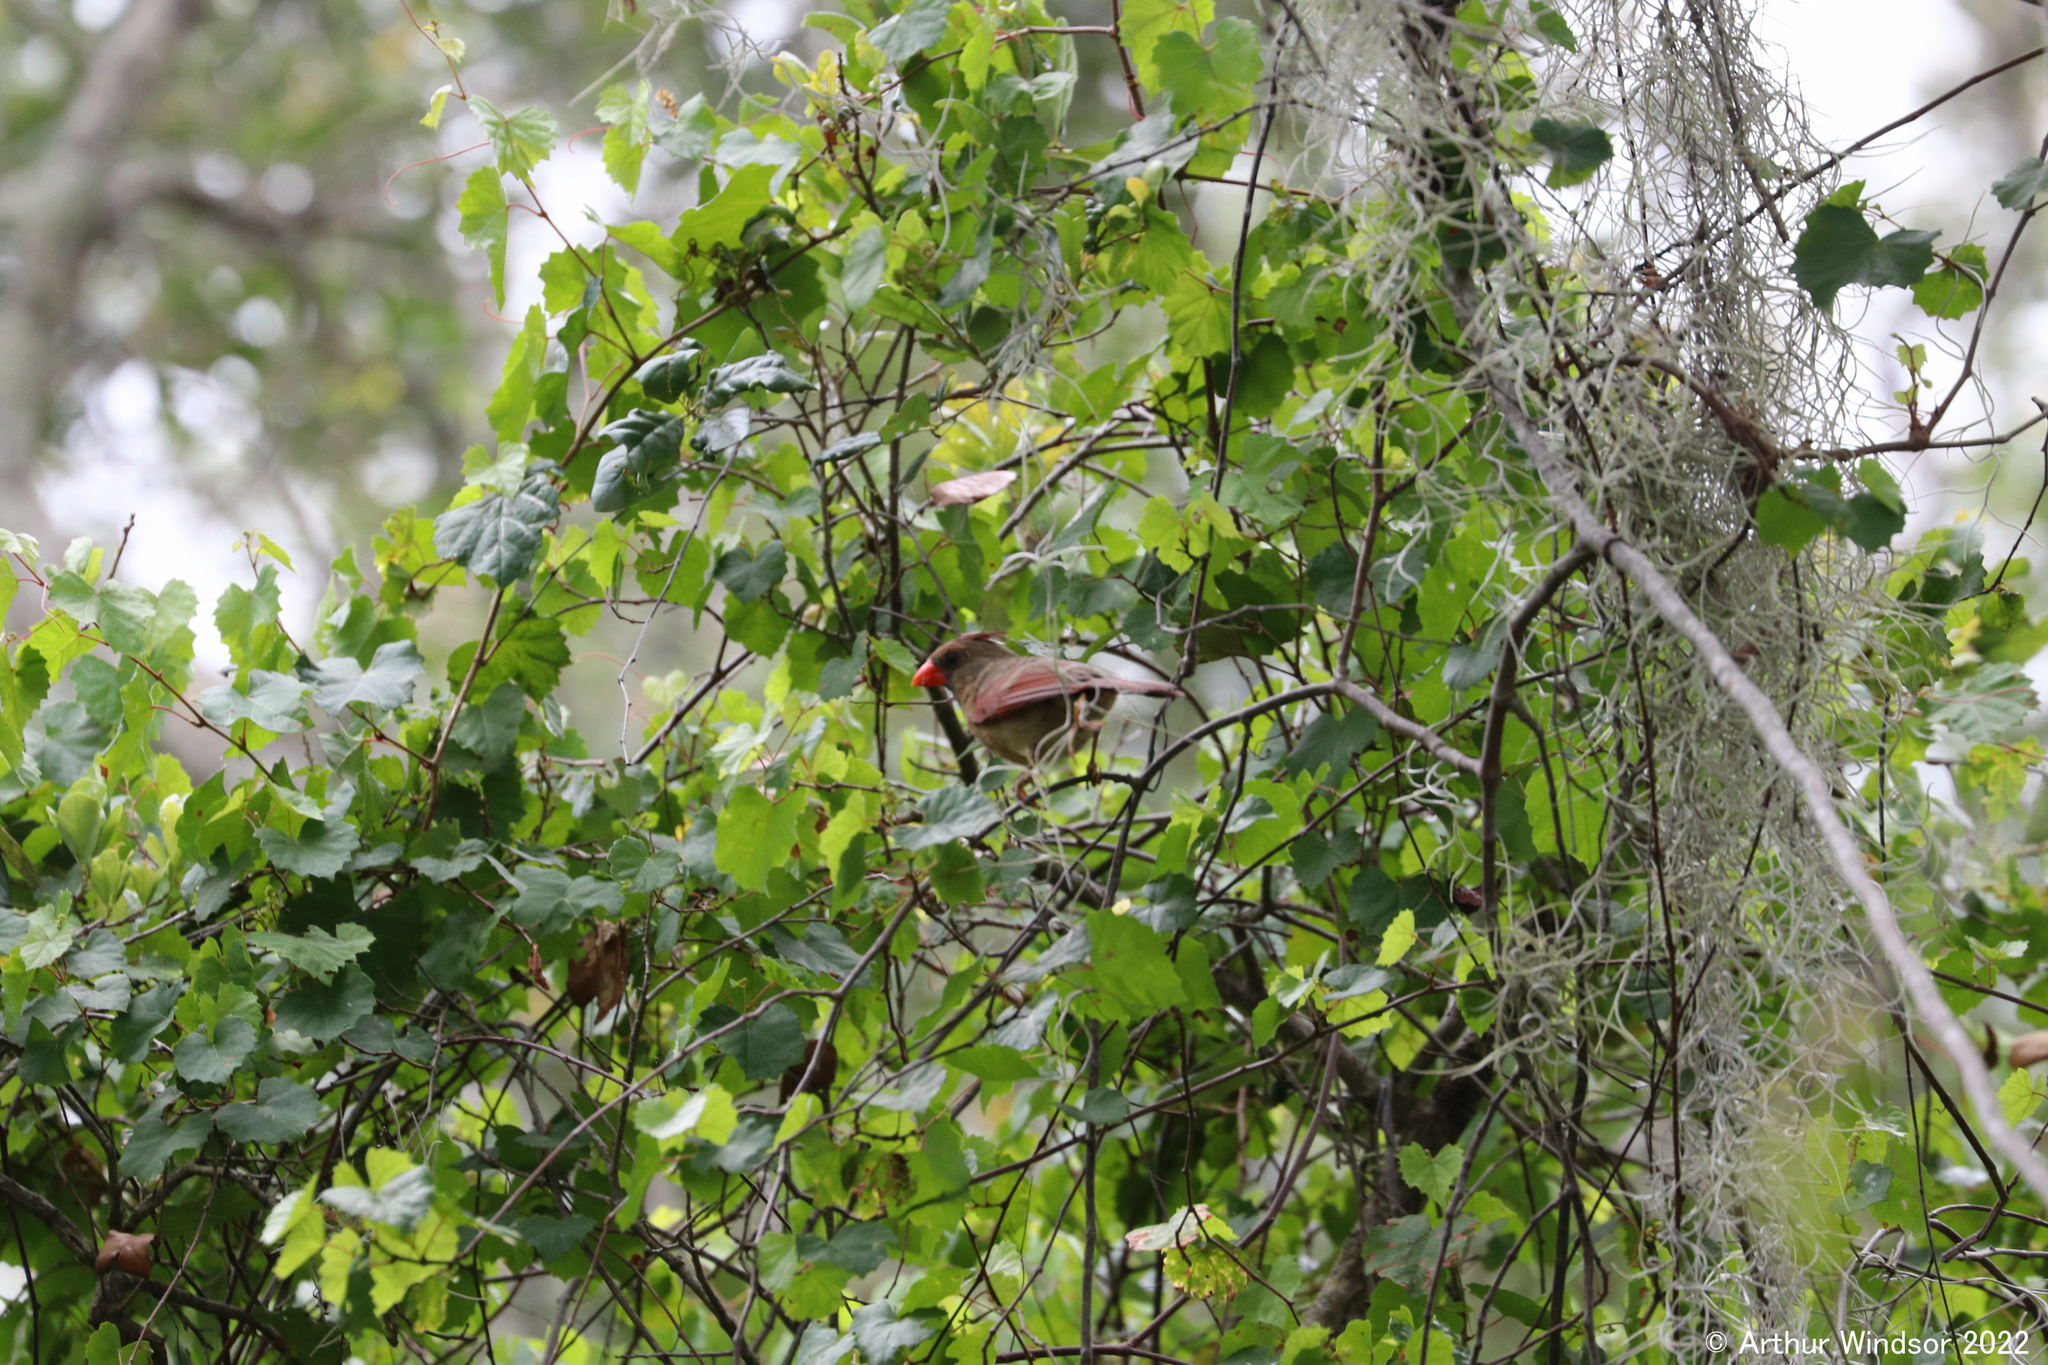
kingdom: Animalia
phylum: Chordata
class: Aves
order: Passeriformes
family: Cardinalidae
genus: Cardinalis
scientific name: Cardinalis cardinalis
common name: Northern cardinal
